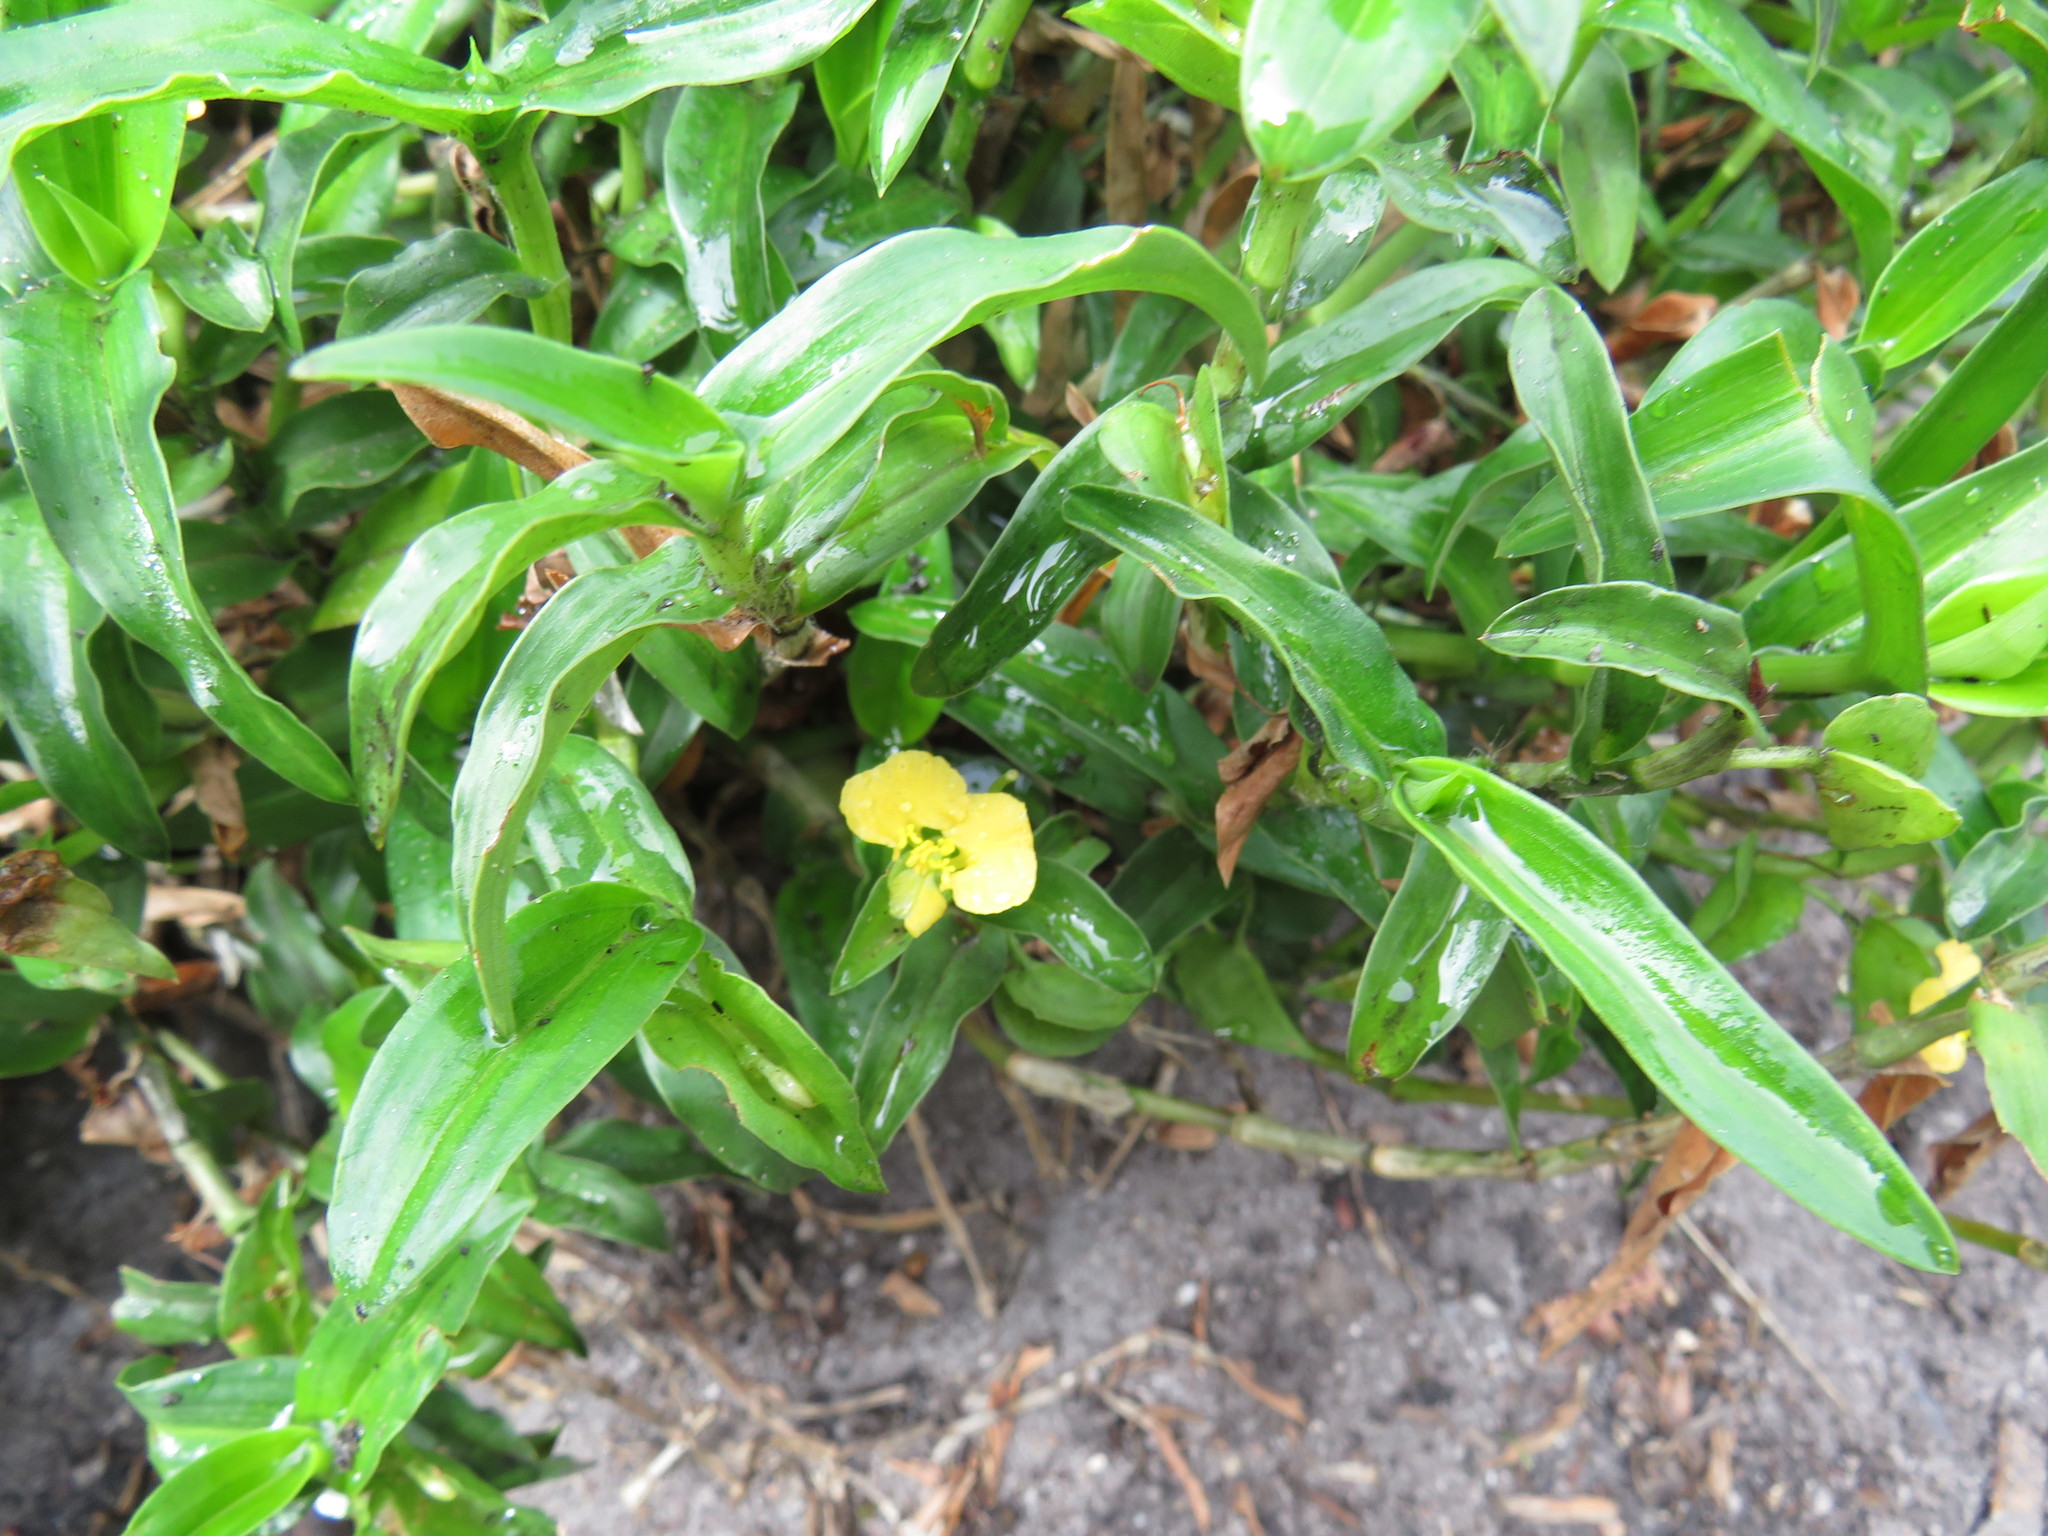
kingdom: Plantae
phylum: Tracheophyta
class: Liliopsida
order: Commelinales
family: Commelinaceae
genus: Commelina
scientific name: Commelina africana
